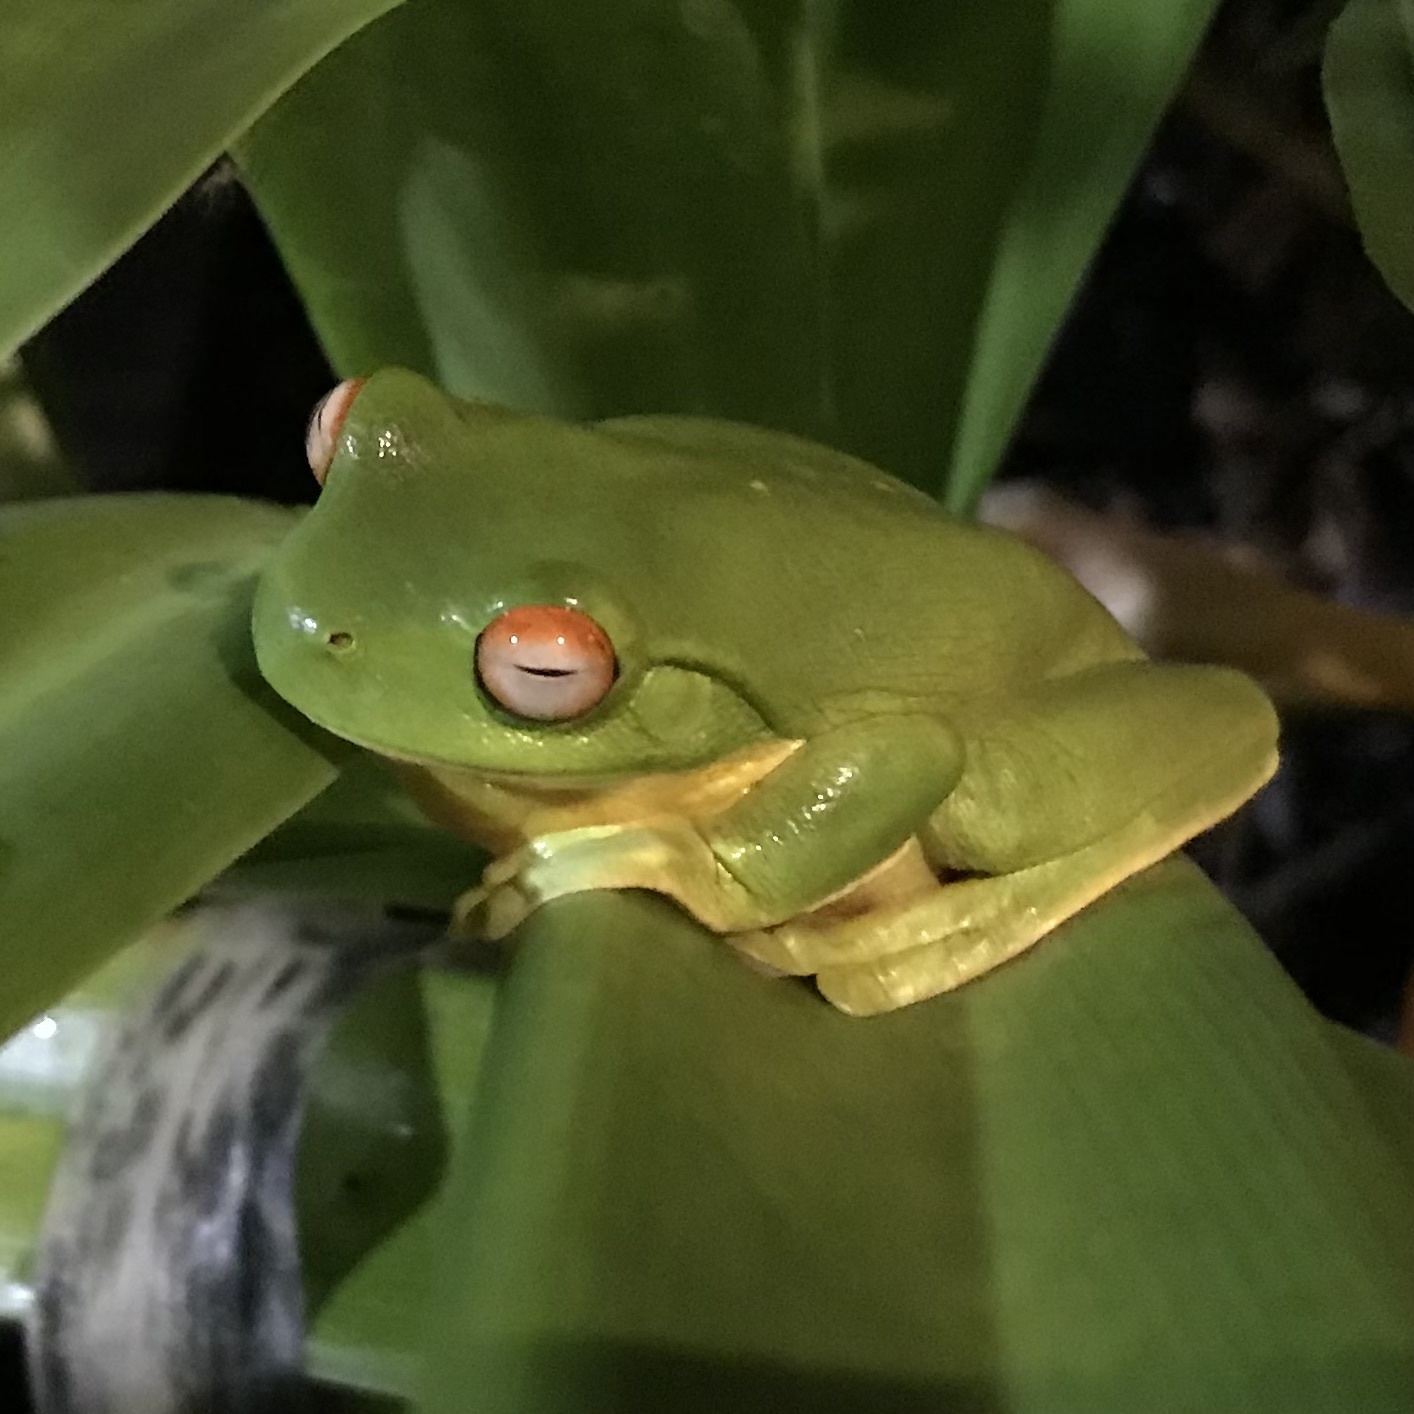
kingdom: Animalia
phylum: Chordata
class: Amphibia
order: Anura
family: Pelodryadidae
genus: Ranoidea
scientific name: Ranoidea chloris
